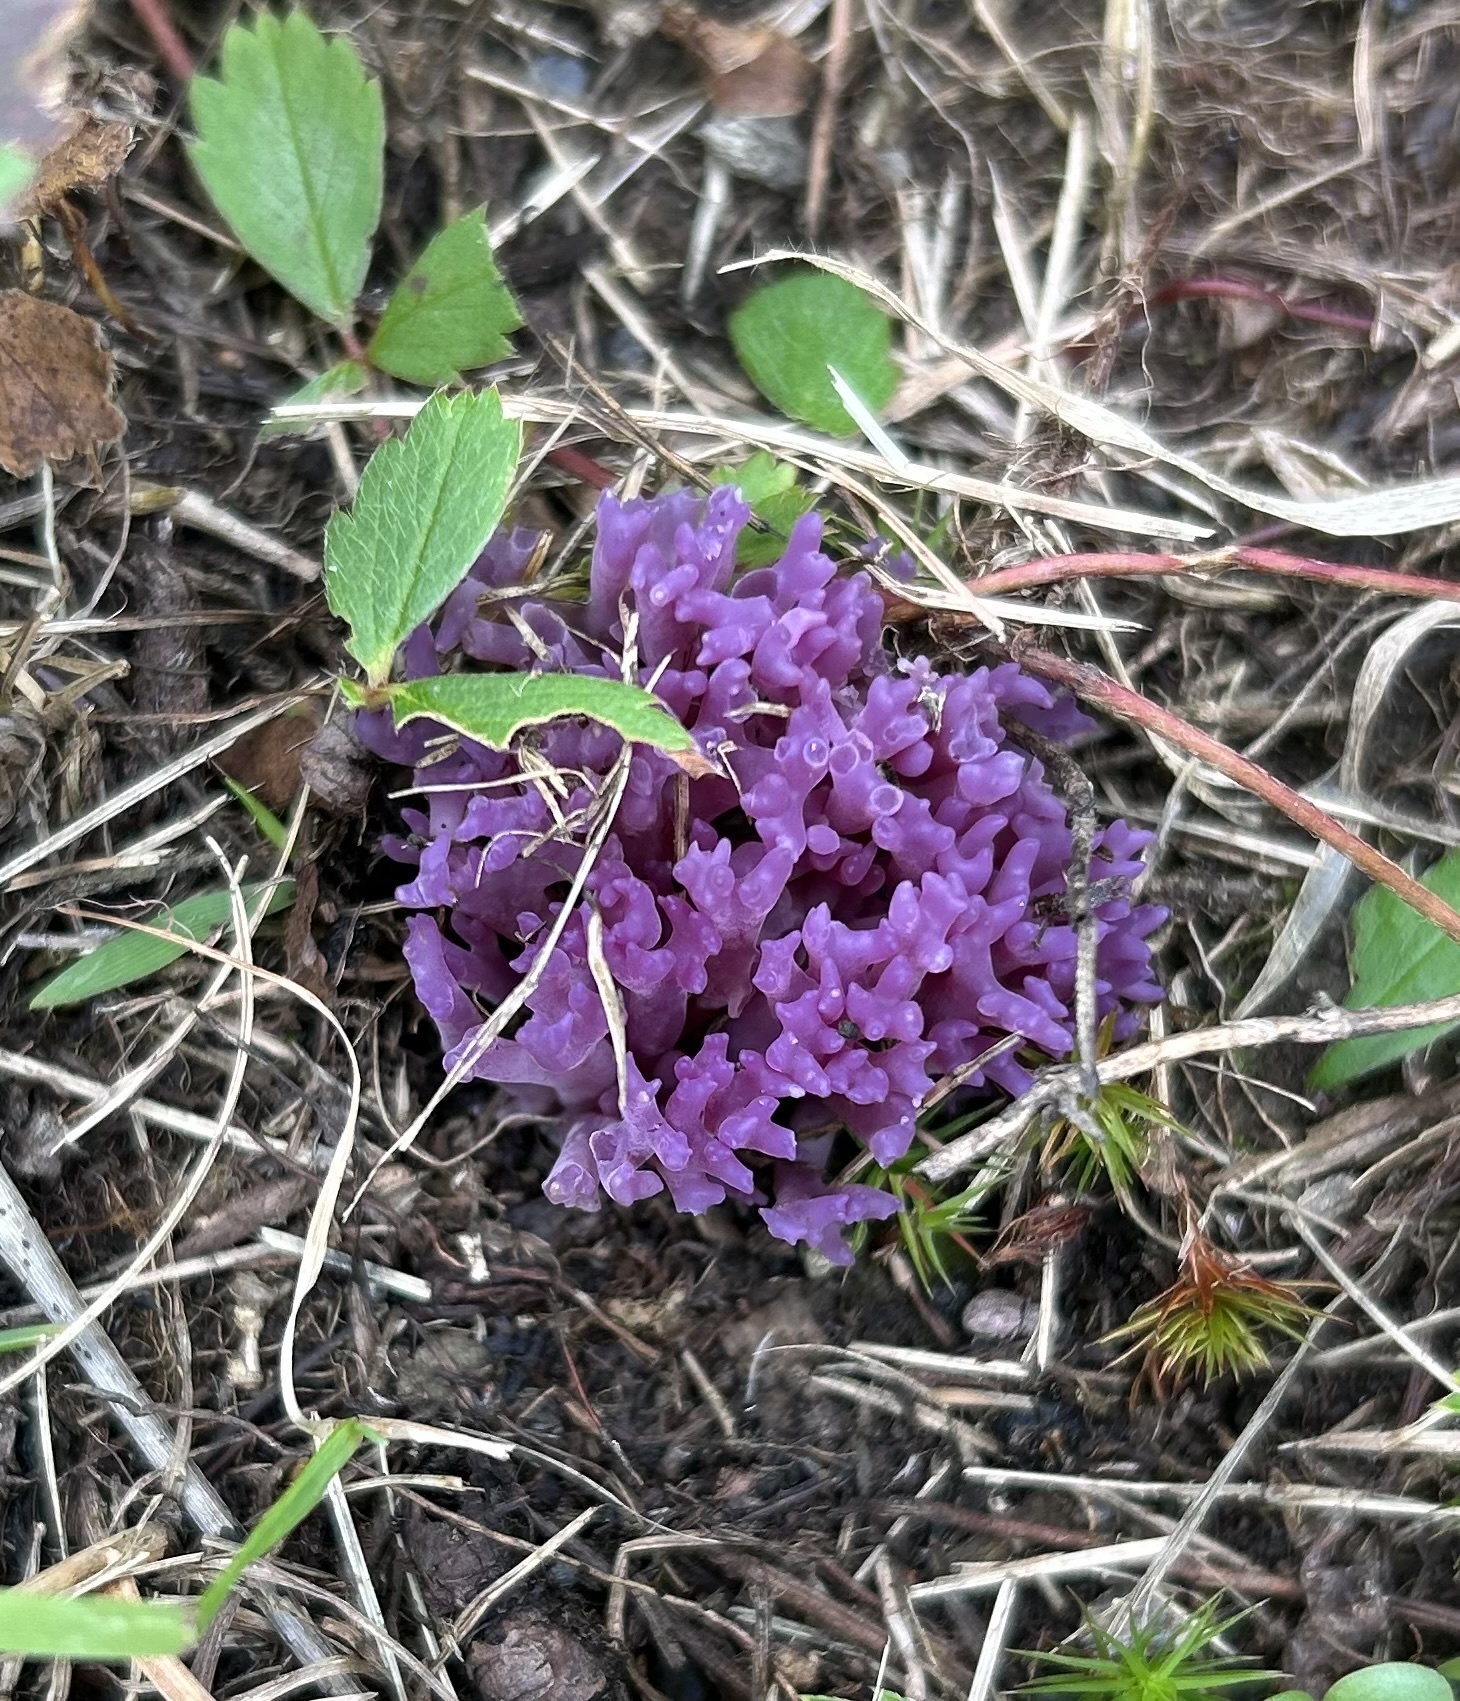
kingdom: Fungi
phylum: Basidiomycota
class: Agaricomycetes
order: Agaricales
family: Clavariaceae
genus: Clavaria
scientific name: Clavaria zollingeri
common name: Violet coral
